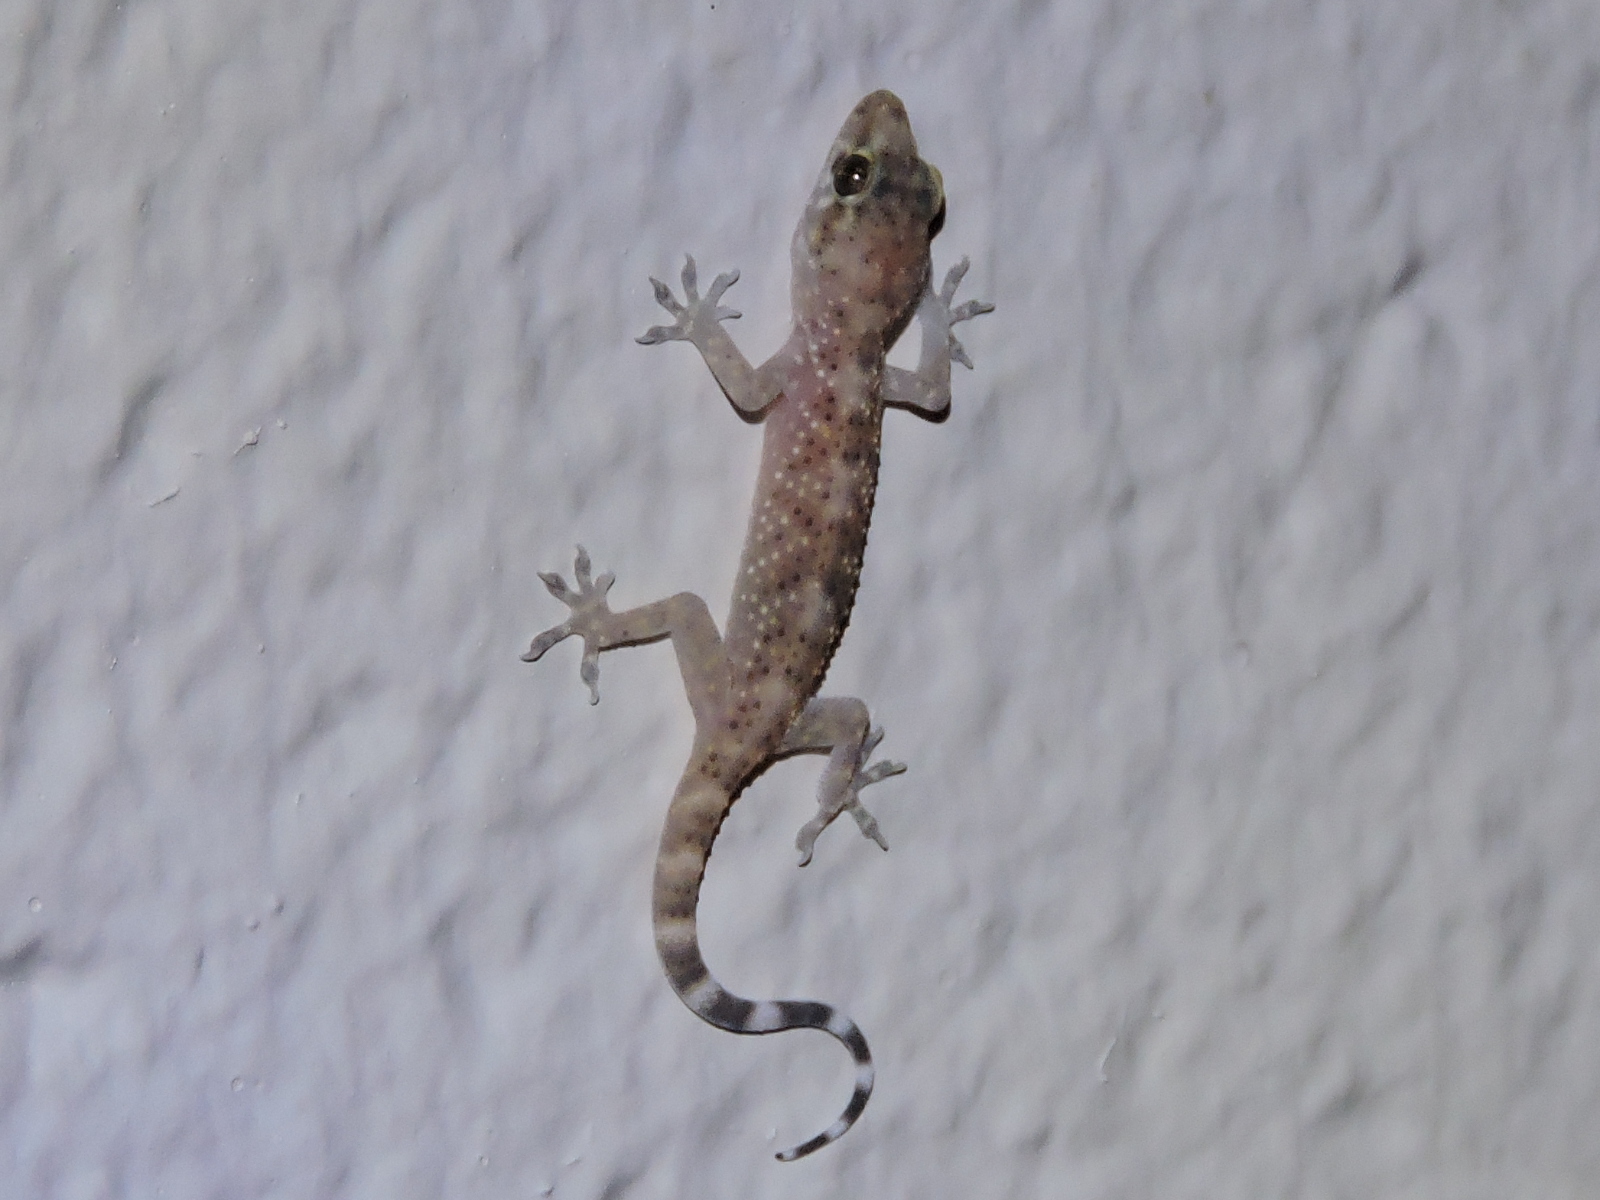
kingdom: Animalia
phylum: Chordata
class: Squamata
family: Gekkonidae
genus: Hemidactylus
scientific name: Hemidactylus turcicus
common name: Turkish gecko
